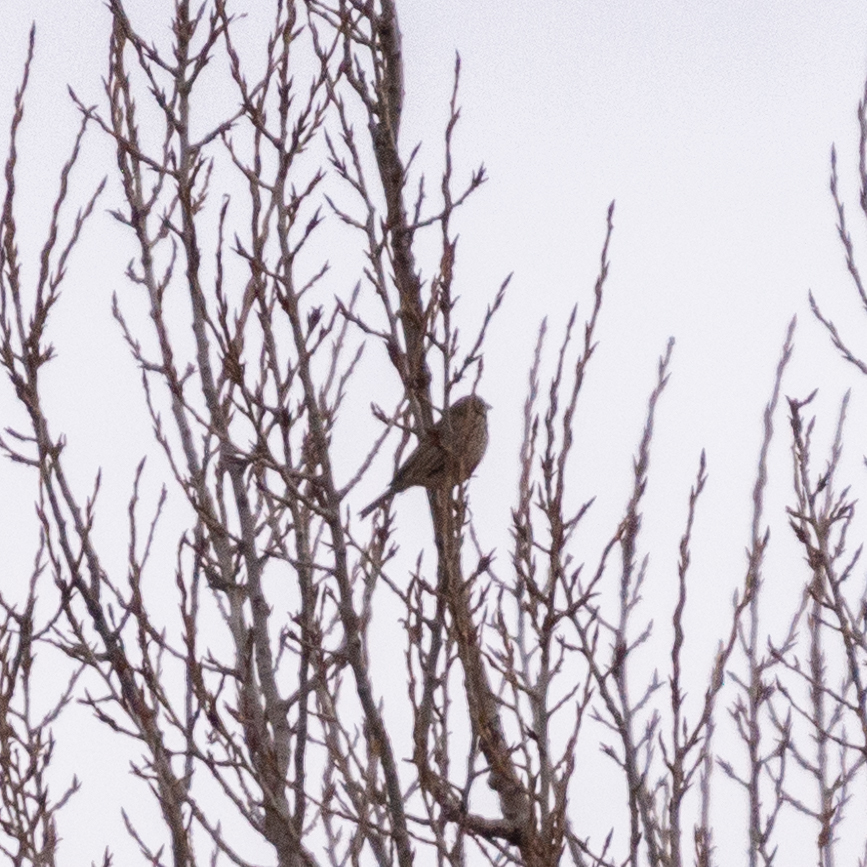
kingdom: Animalia
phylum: Chordata
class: Aves
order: Passeriformes
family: Emberizidae
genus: Emberiza
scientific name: Emberiza calandra
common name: Corn bunting
